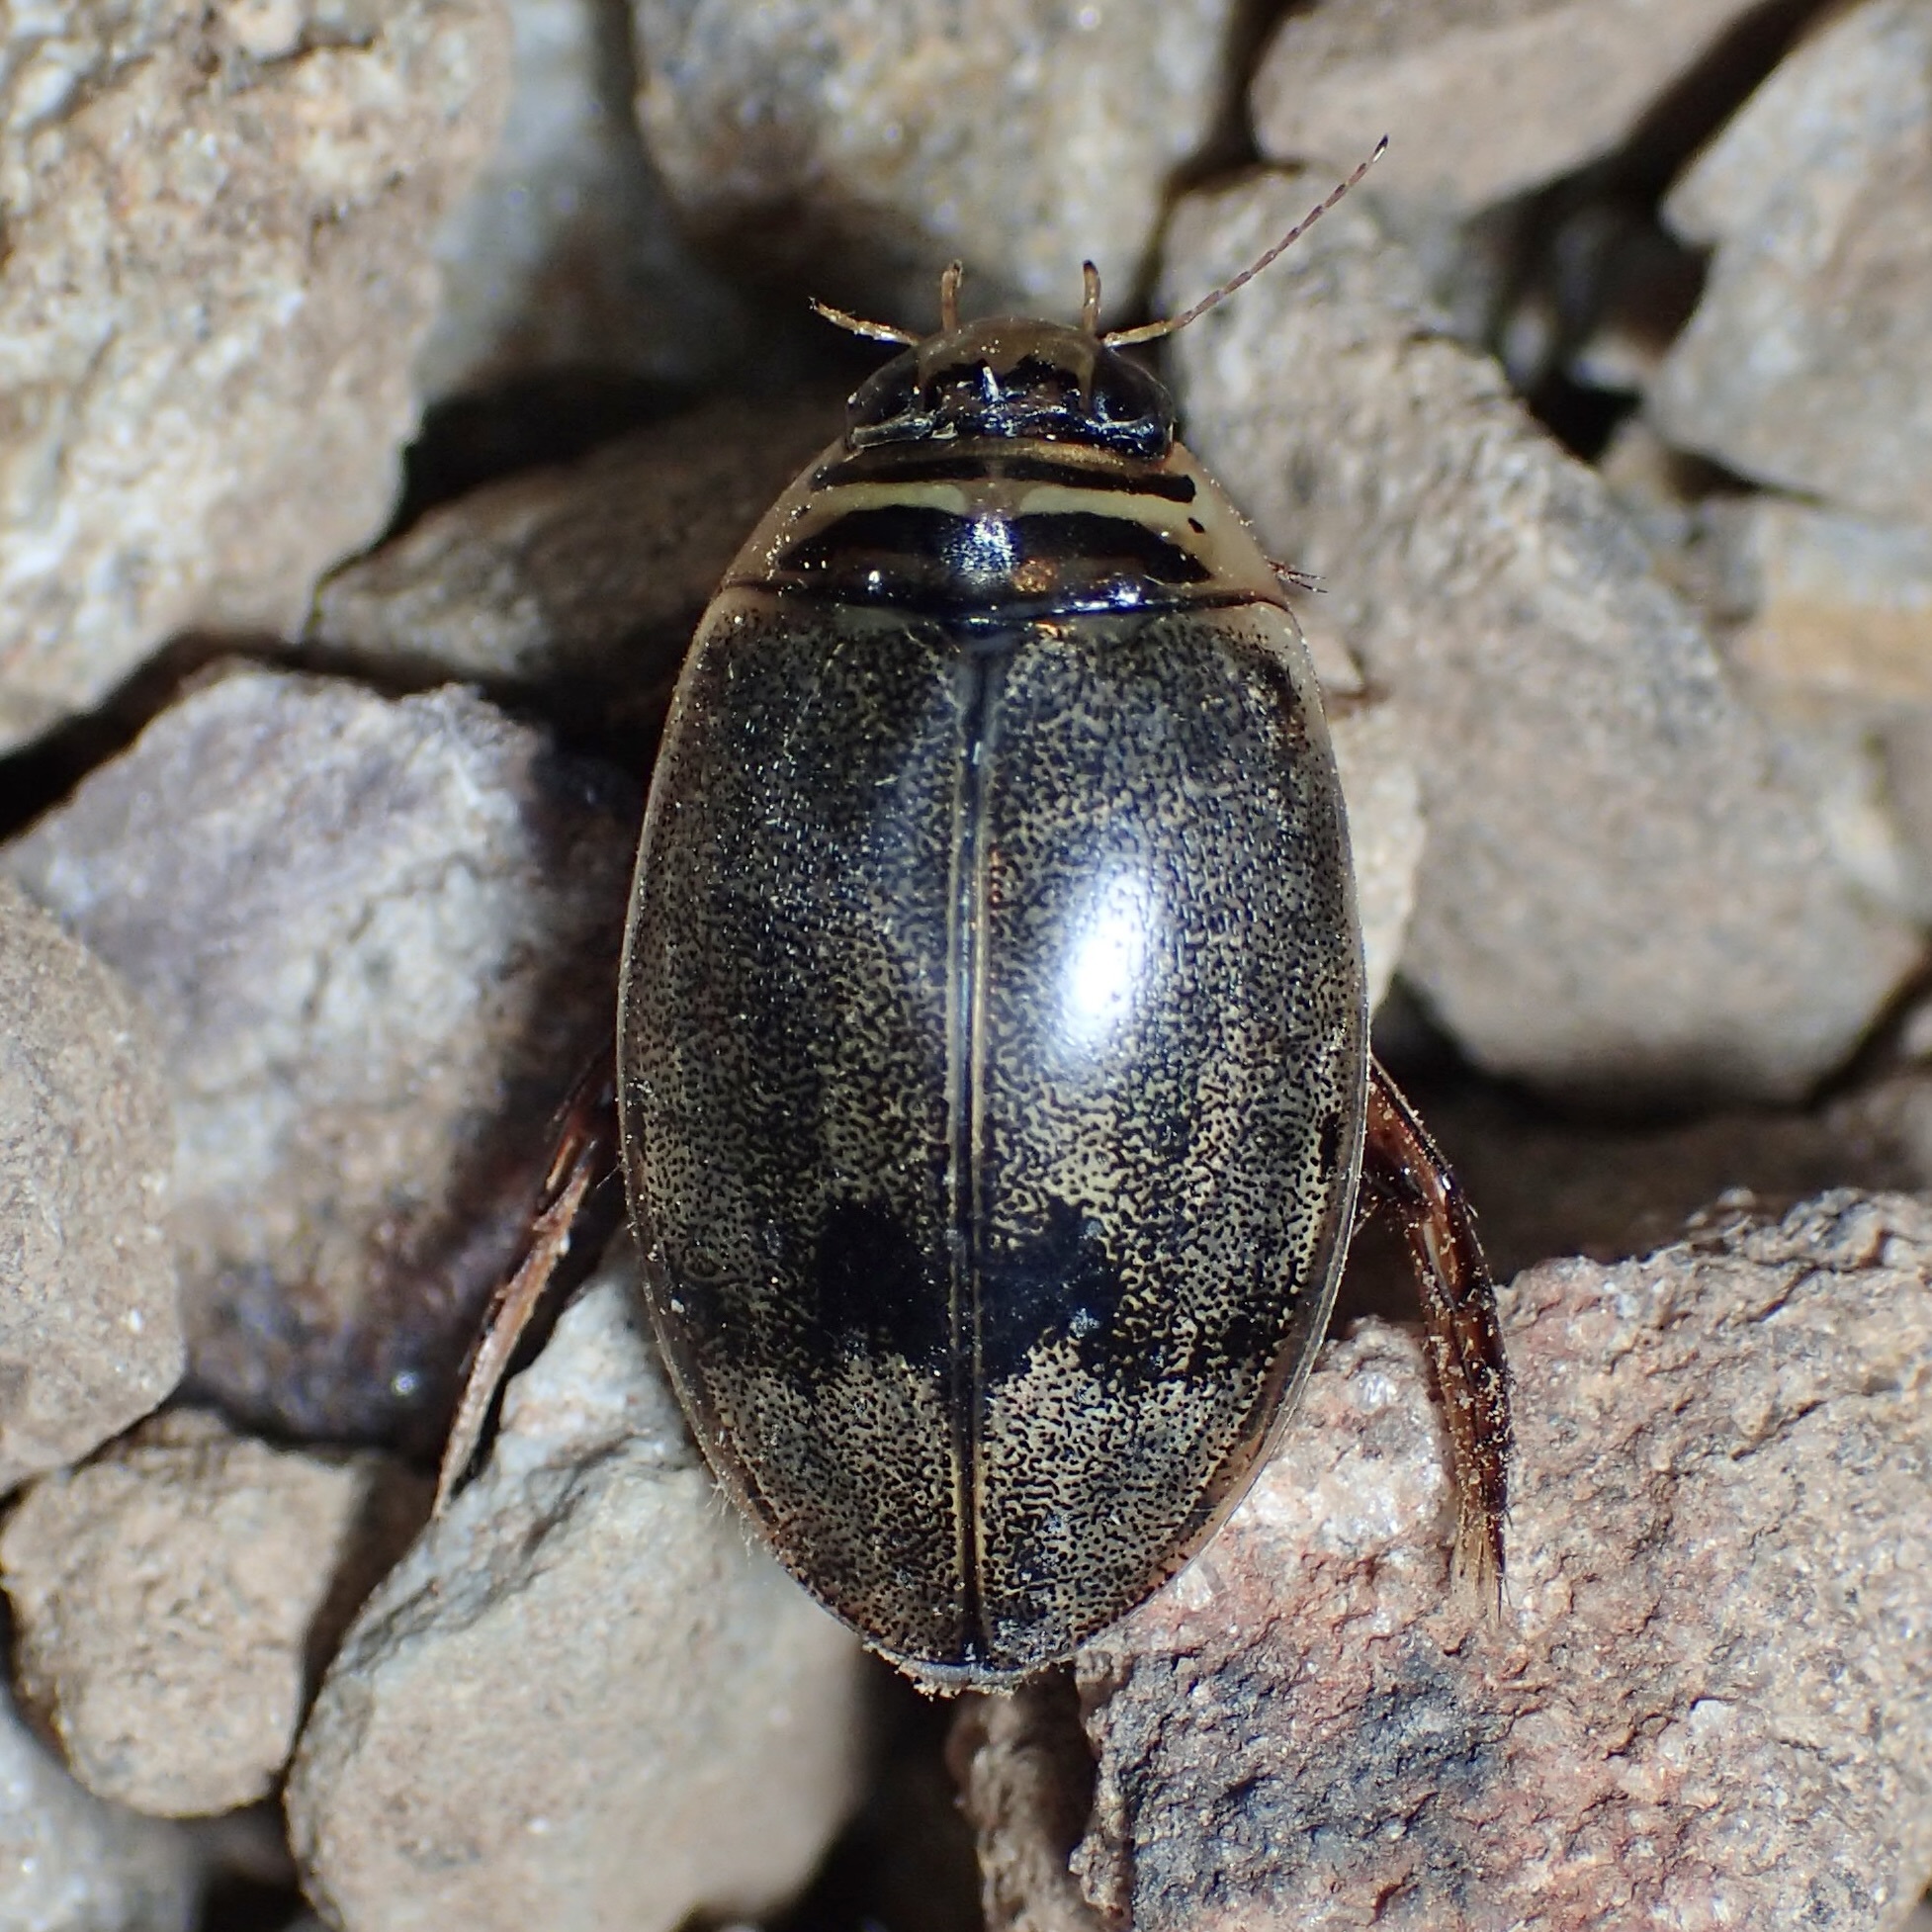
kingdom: Animalia
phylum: Arthropoda
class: Insecta
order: Coleoptera
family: Dytiscidae
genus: Thermonectus
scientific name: Thermonectus nigrofasciatus
